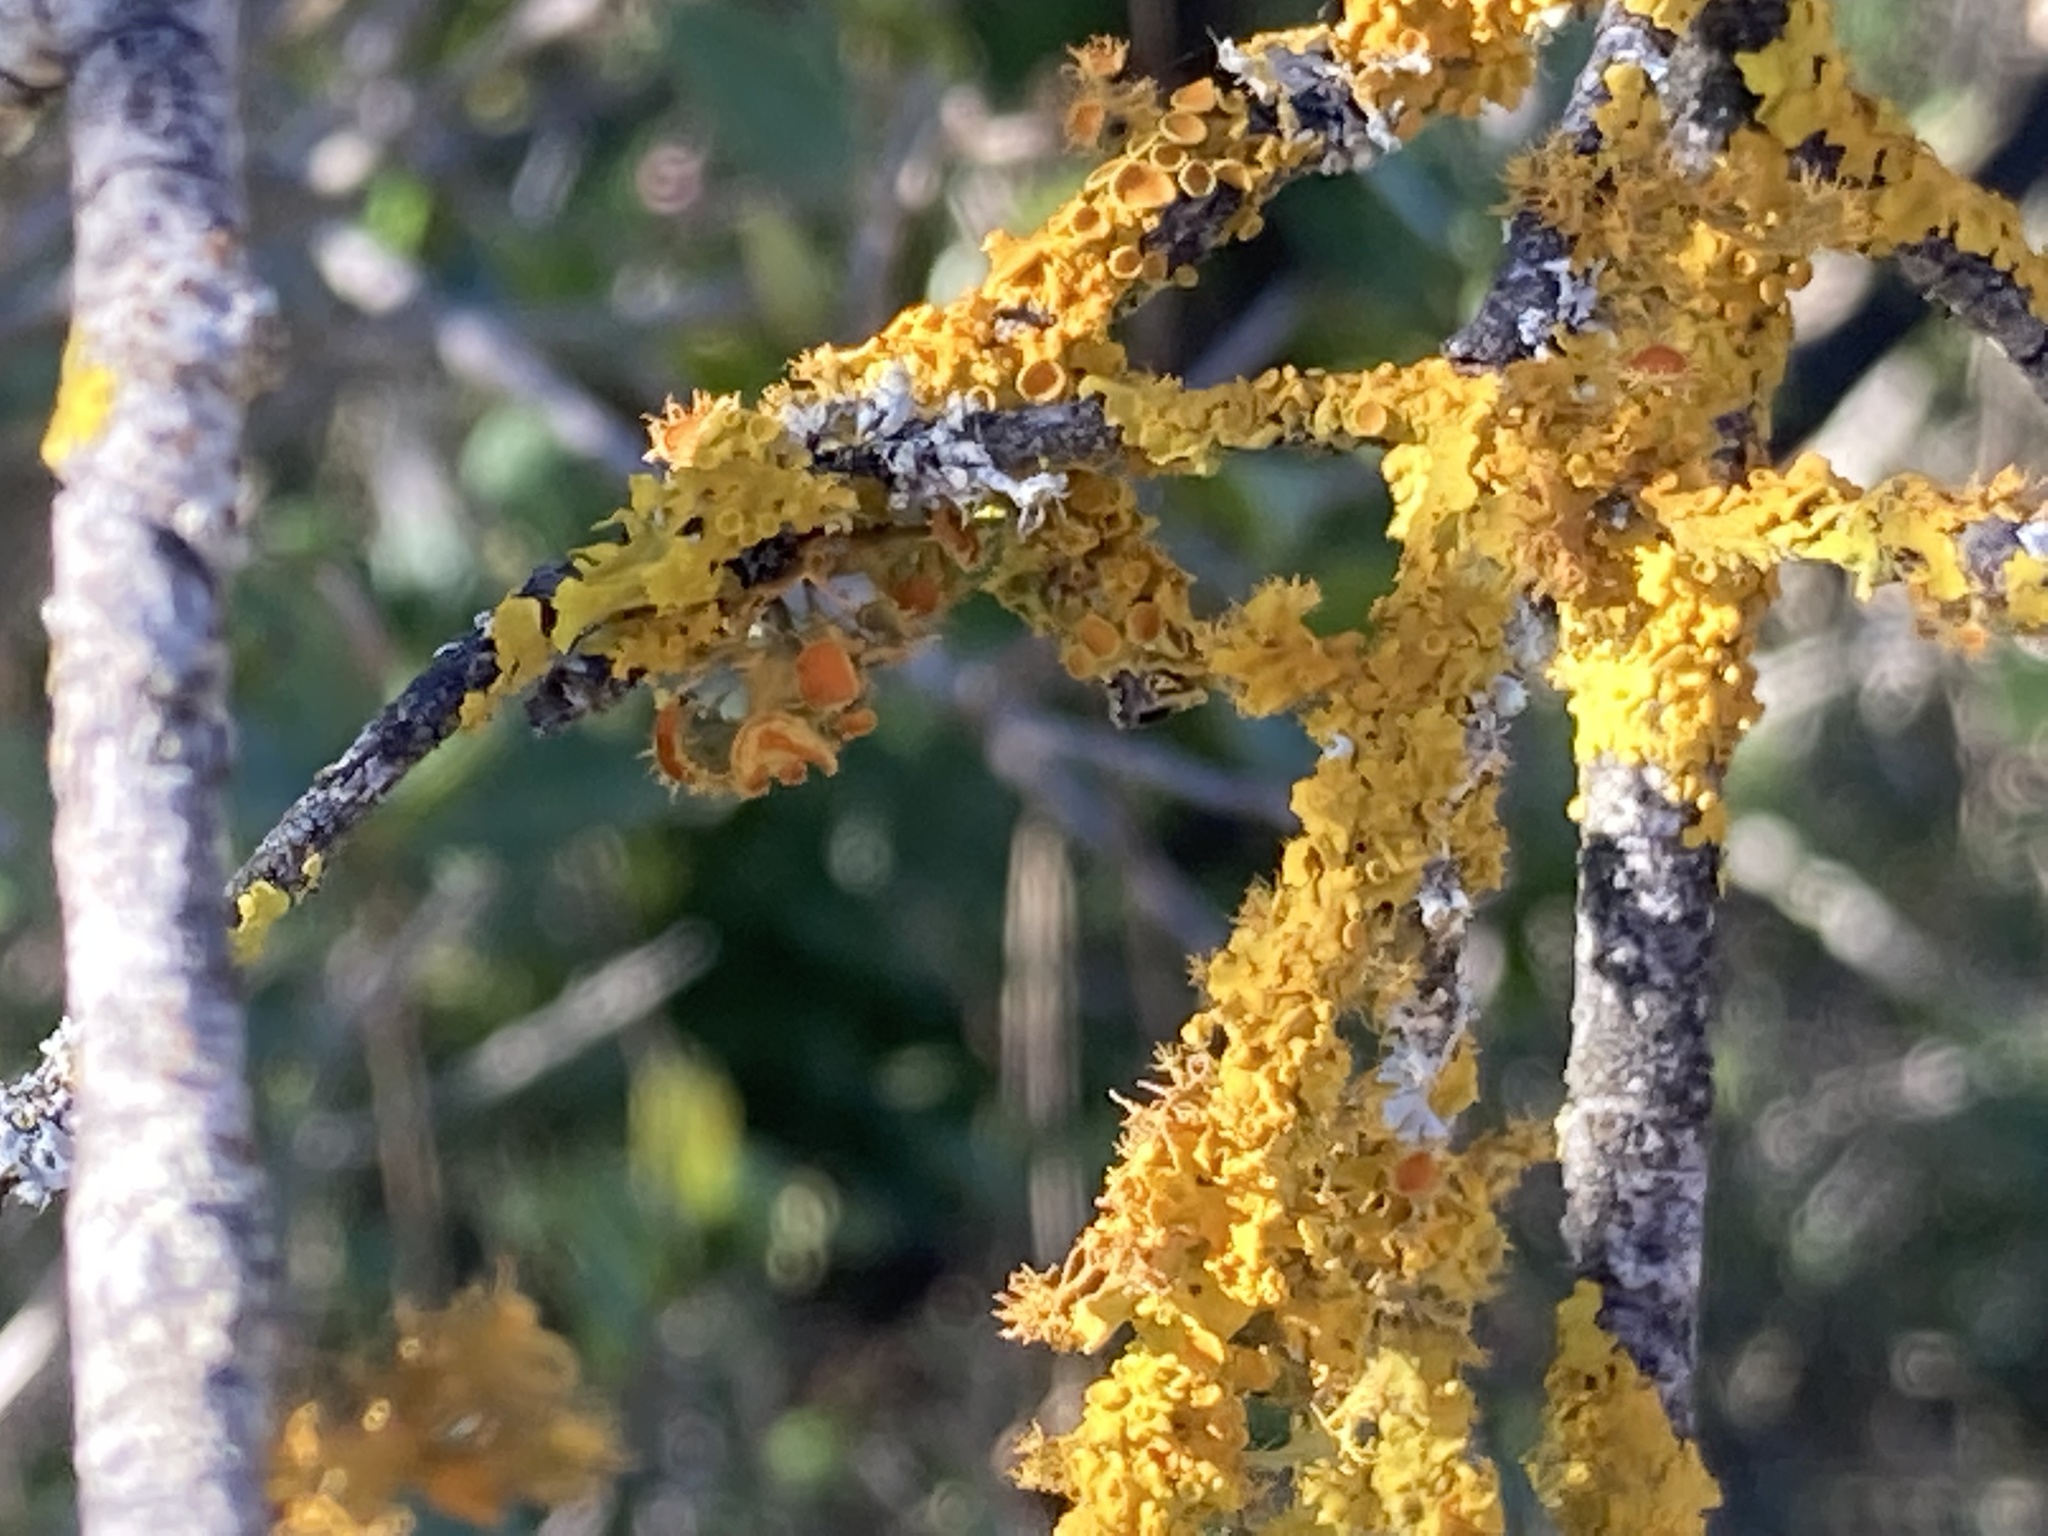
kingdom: Fungi
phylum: Ascomycota
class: Lecanoromycetes
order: Teloschistales
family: Teloschistaceae
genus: Niorma
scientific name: Niorma chrysophthalma
